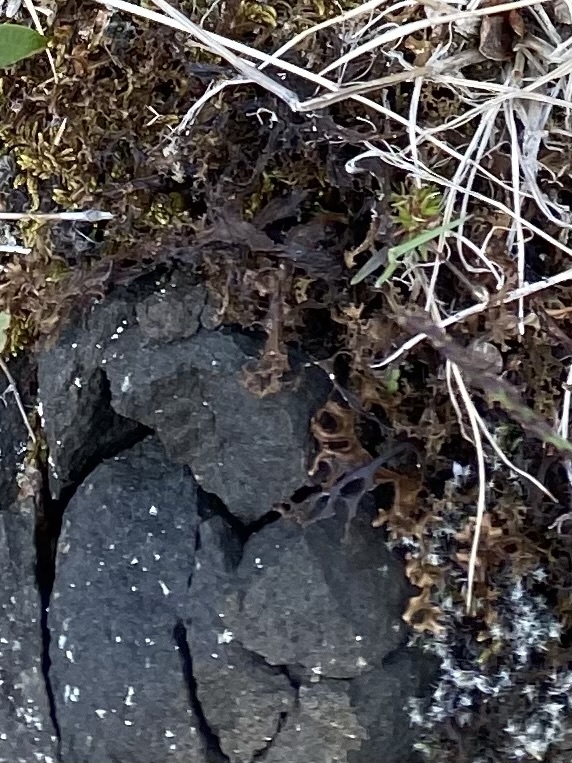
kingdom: Fungi
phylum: Ascomycota
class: Lecanoromycetes
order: Lecanorales
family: Parmeliaceae
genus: Cetraria
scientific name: Cetraria islandica
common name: Iceland lichen
